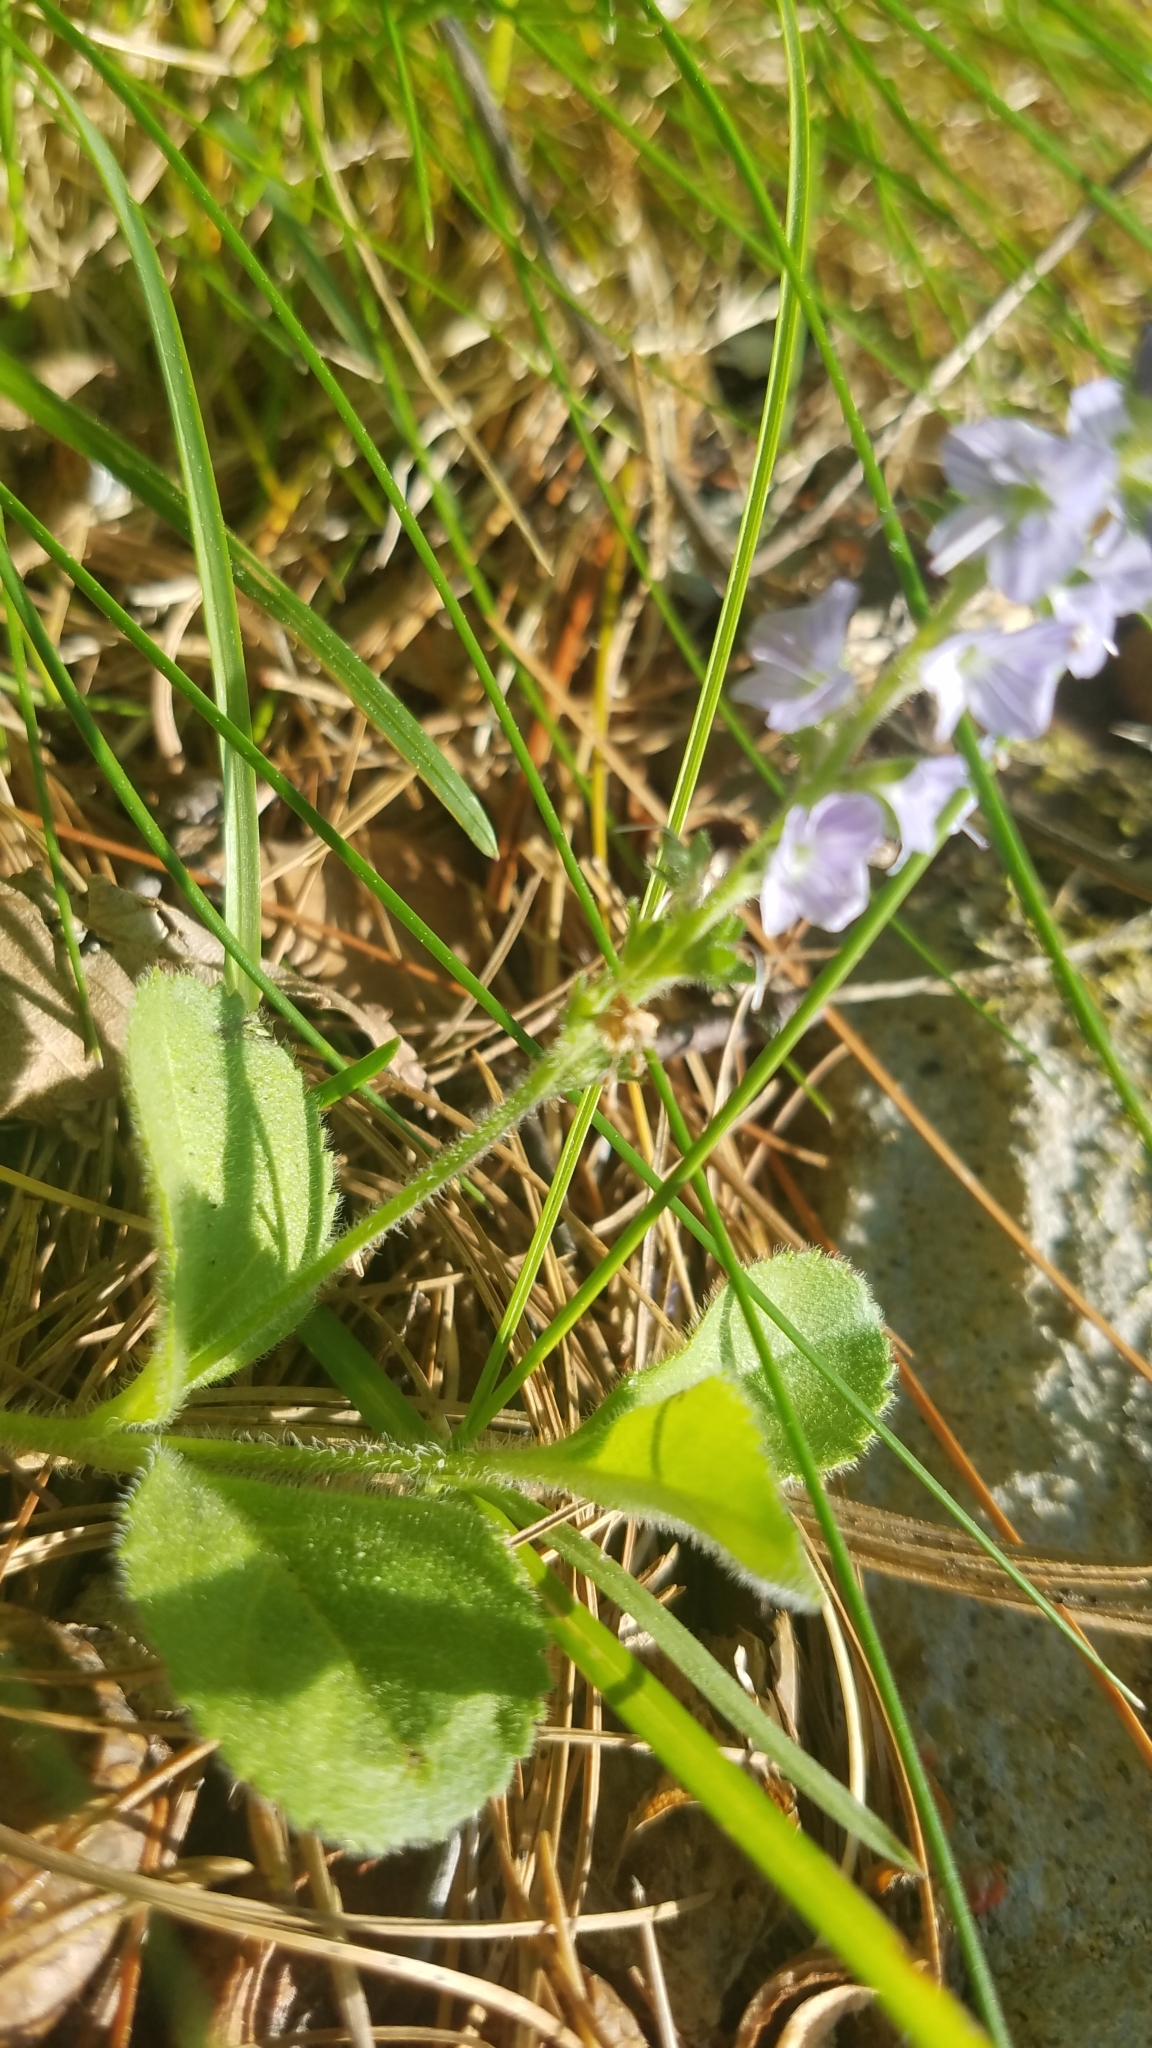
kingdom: Plantae
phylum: Tracheophyta
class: Magnoliopsida
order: Lamiales
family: Plantaginaceae
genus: Veronica
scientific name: Veronica officinalis
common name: Common speedwell
